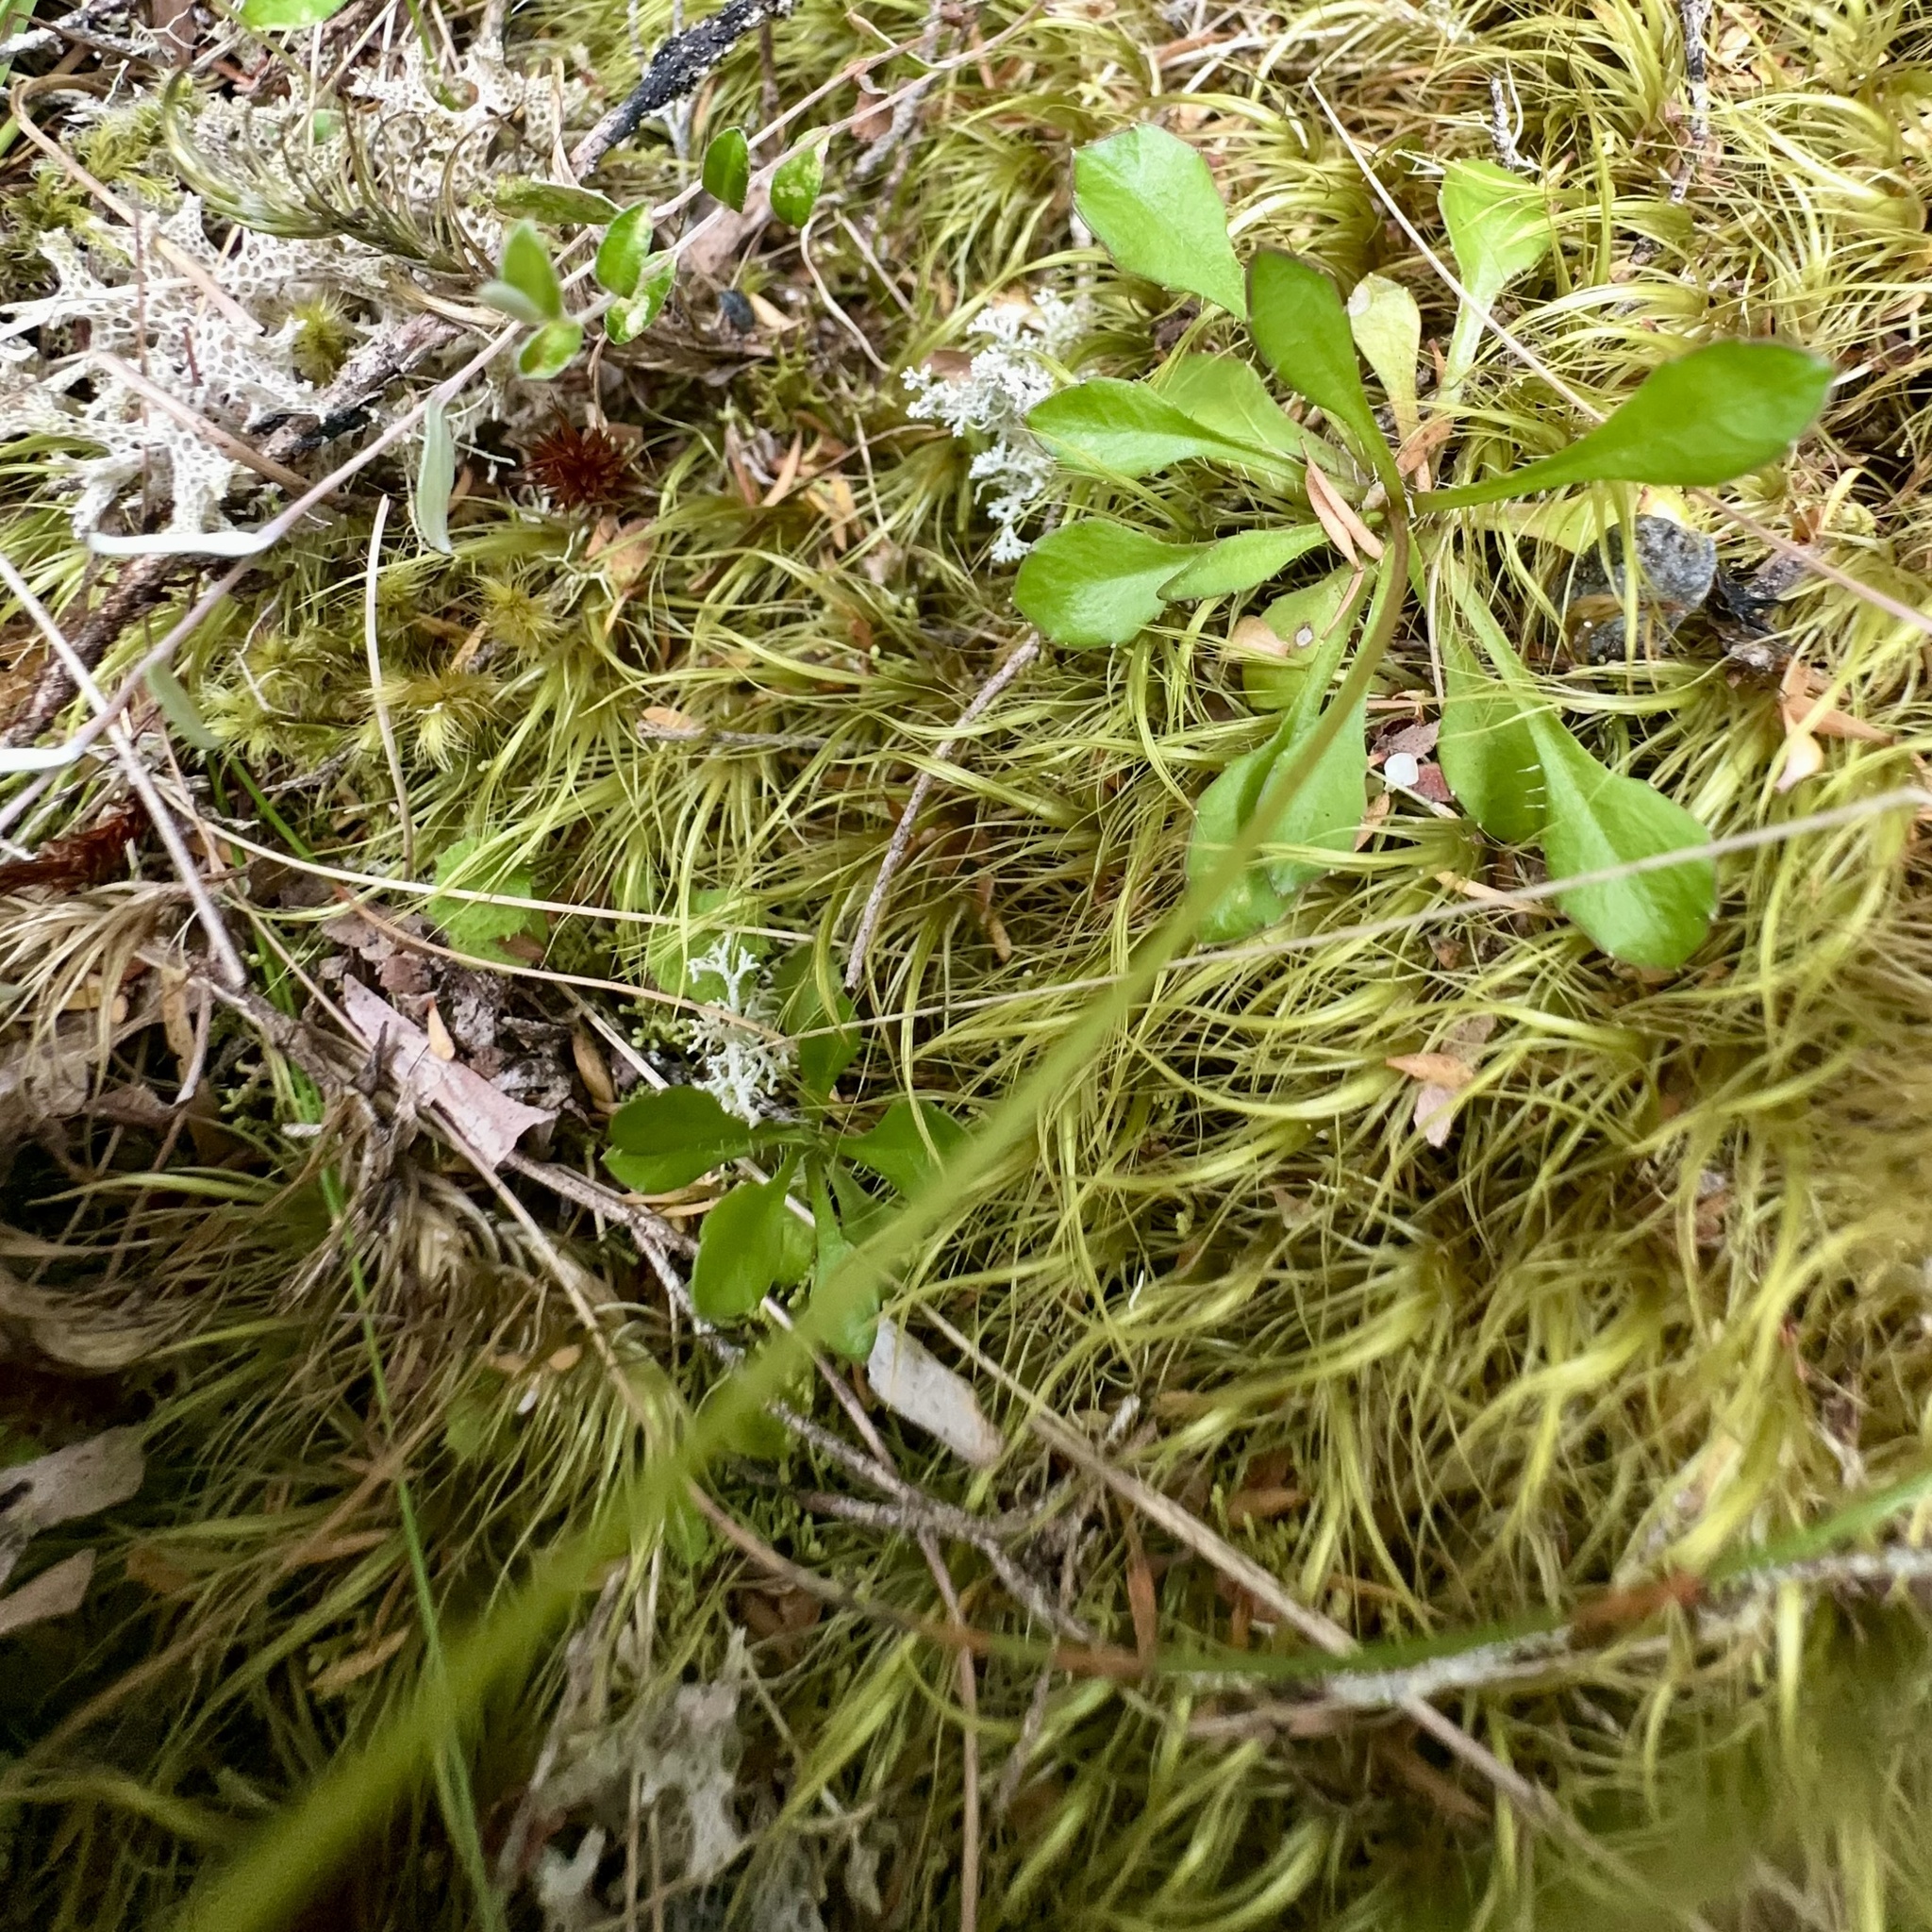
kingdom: Plantae
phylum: Tracheophyta
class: Magnoliopsida
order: Asterales
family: Campanulaceae
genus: Wahlenbergia
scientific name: Wahlenbergia albomarginata
